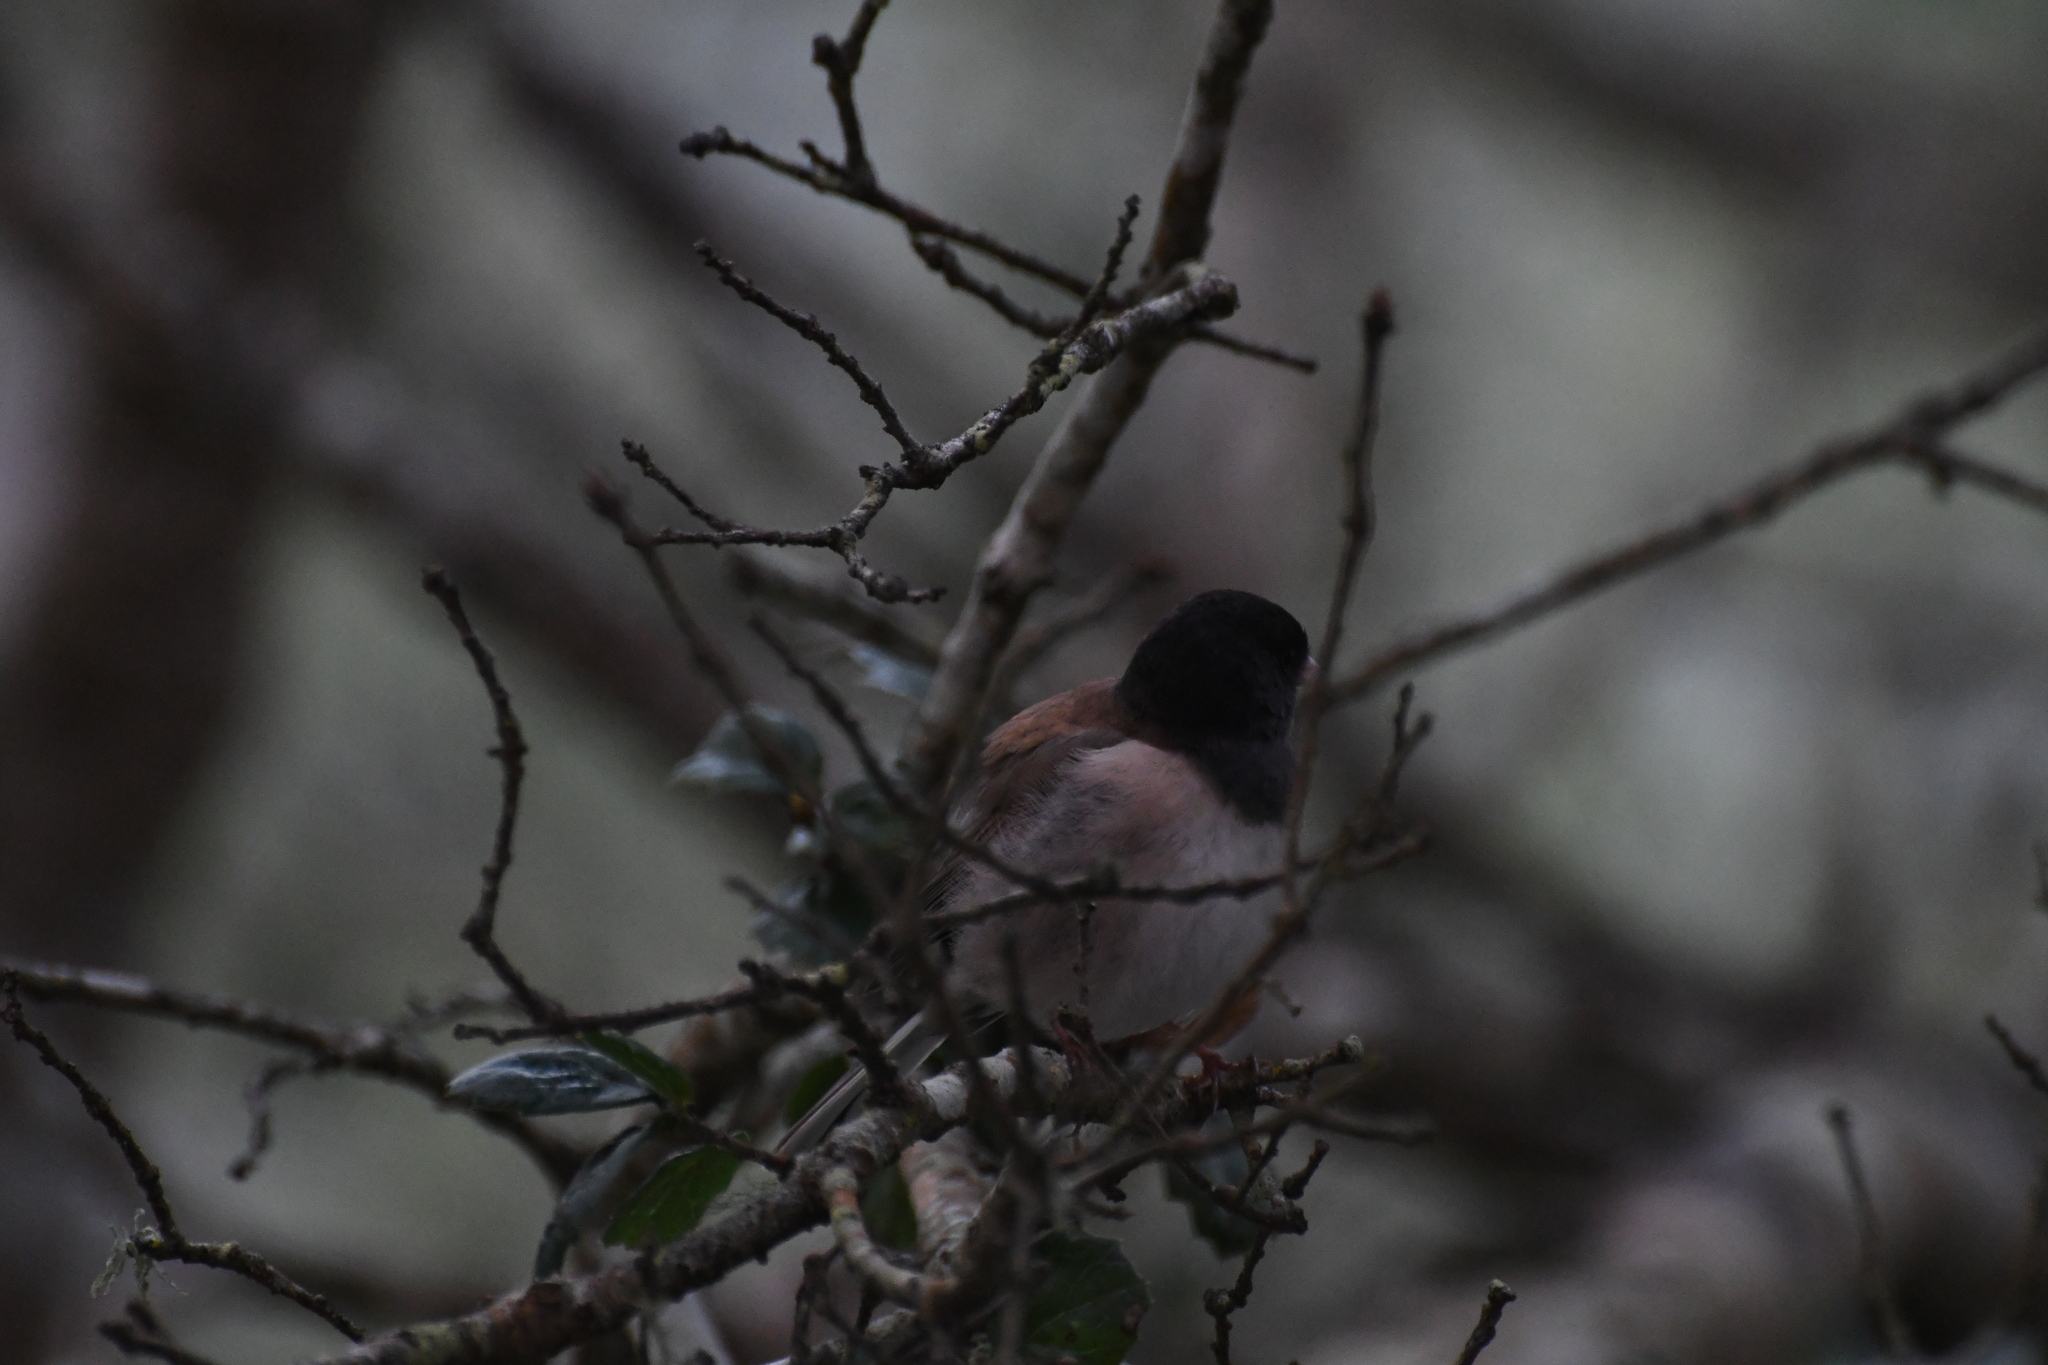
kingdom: Animalia
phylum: Chordata
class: Aves
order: Passeriformes
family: Passerellidae
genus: Junco
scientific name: Junco hyemalis
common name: Dark-eyed junco
